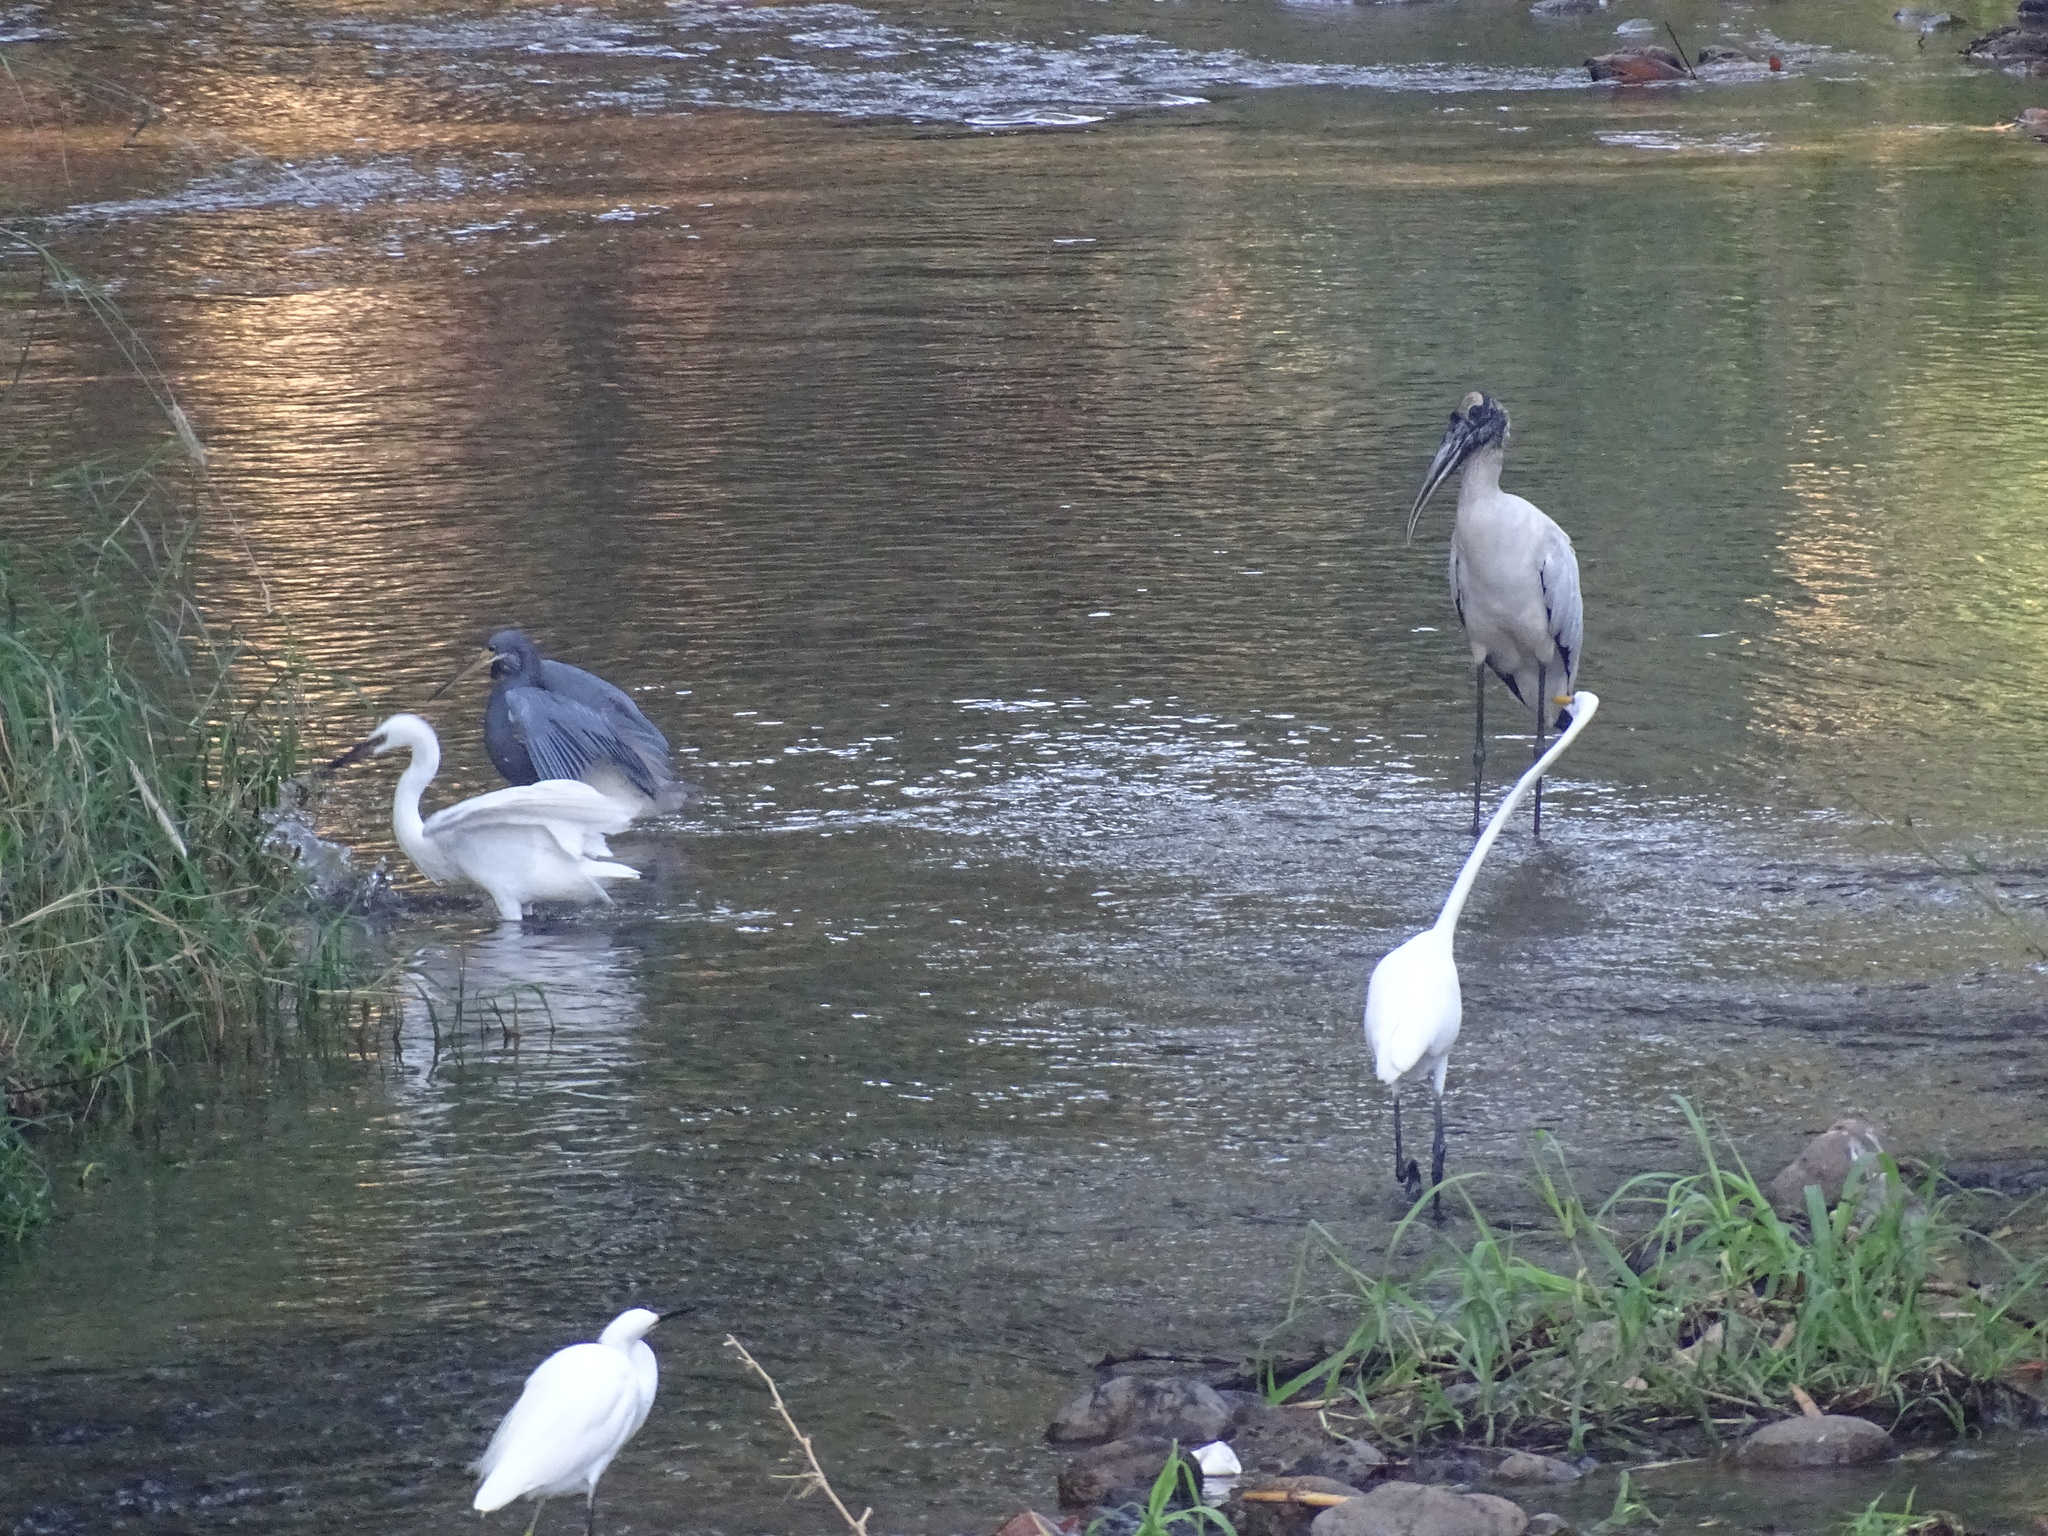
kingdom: Animalia
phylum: Chordata
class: Aves
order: Pelecaniformes
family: Ardeidae
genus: Egretta
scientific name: Egretta tricolor
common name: Tricolored heron
